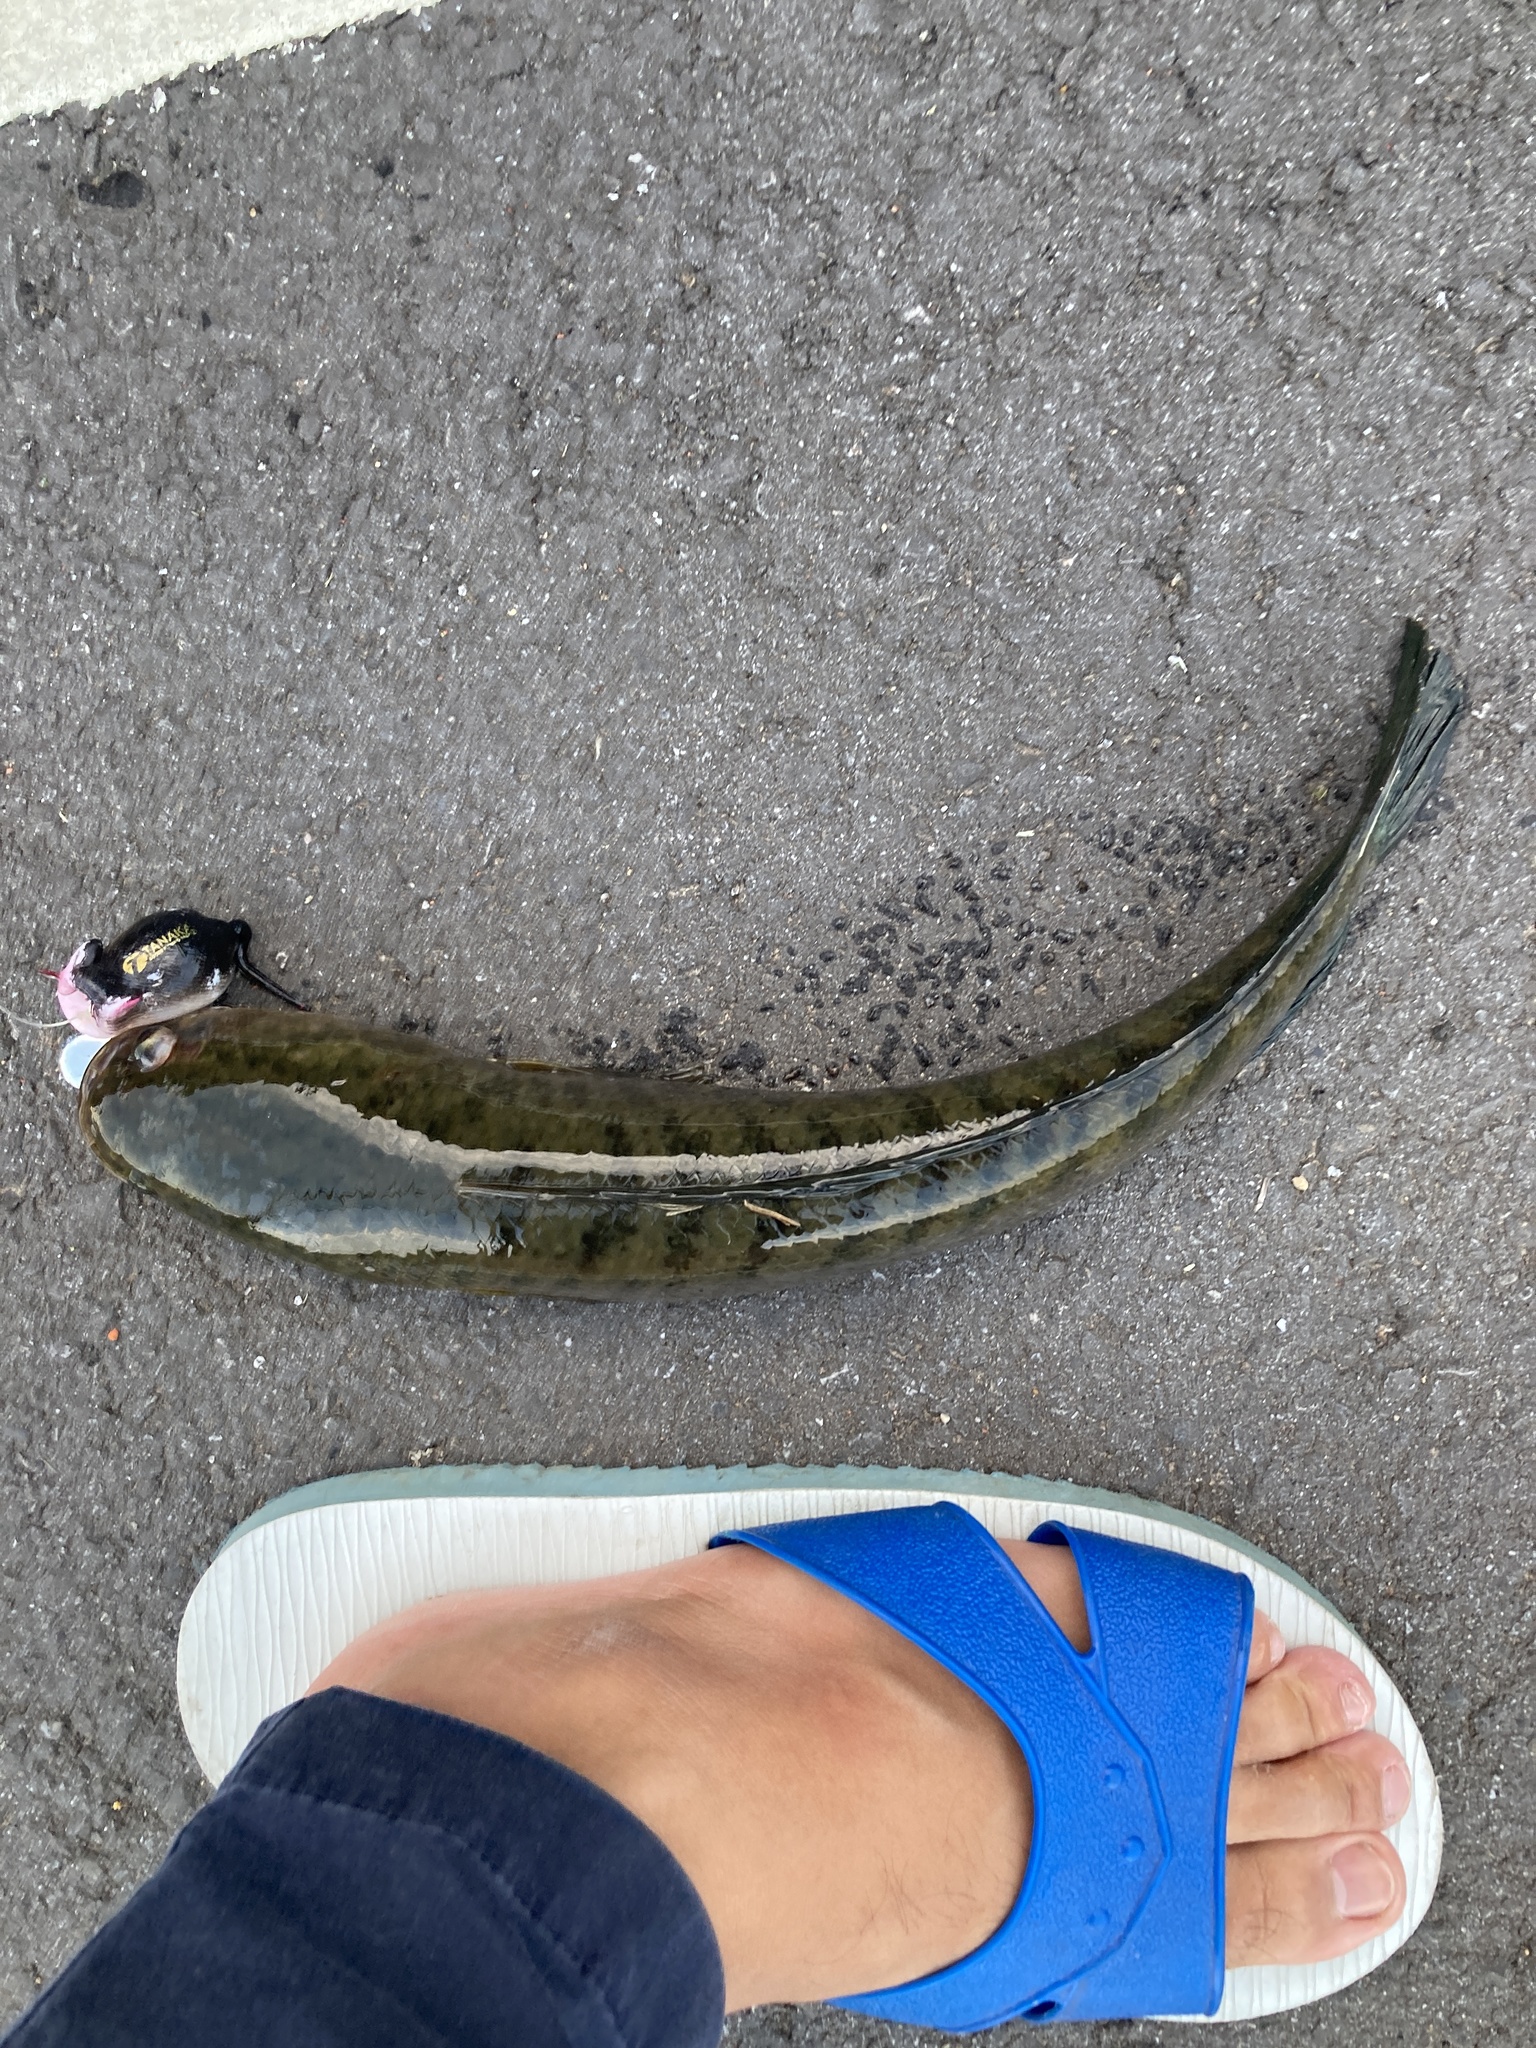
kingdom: Animalia
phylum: Chordata
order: Perciformes
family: Channidae
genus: Channa
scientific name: Channa striata
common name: Striped snakehead
